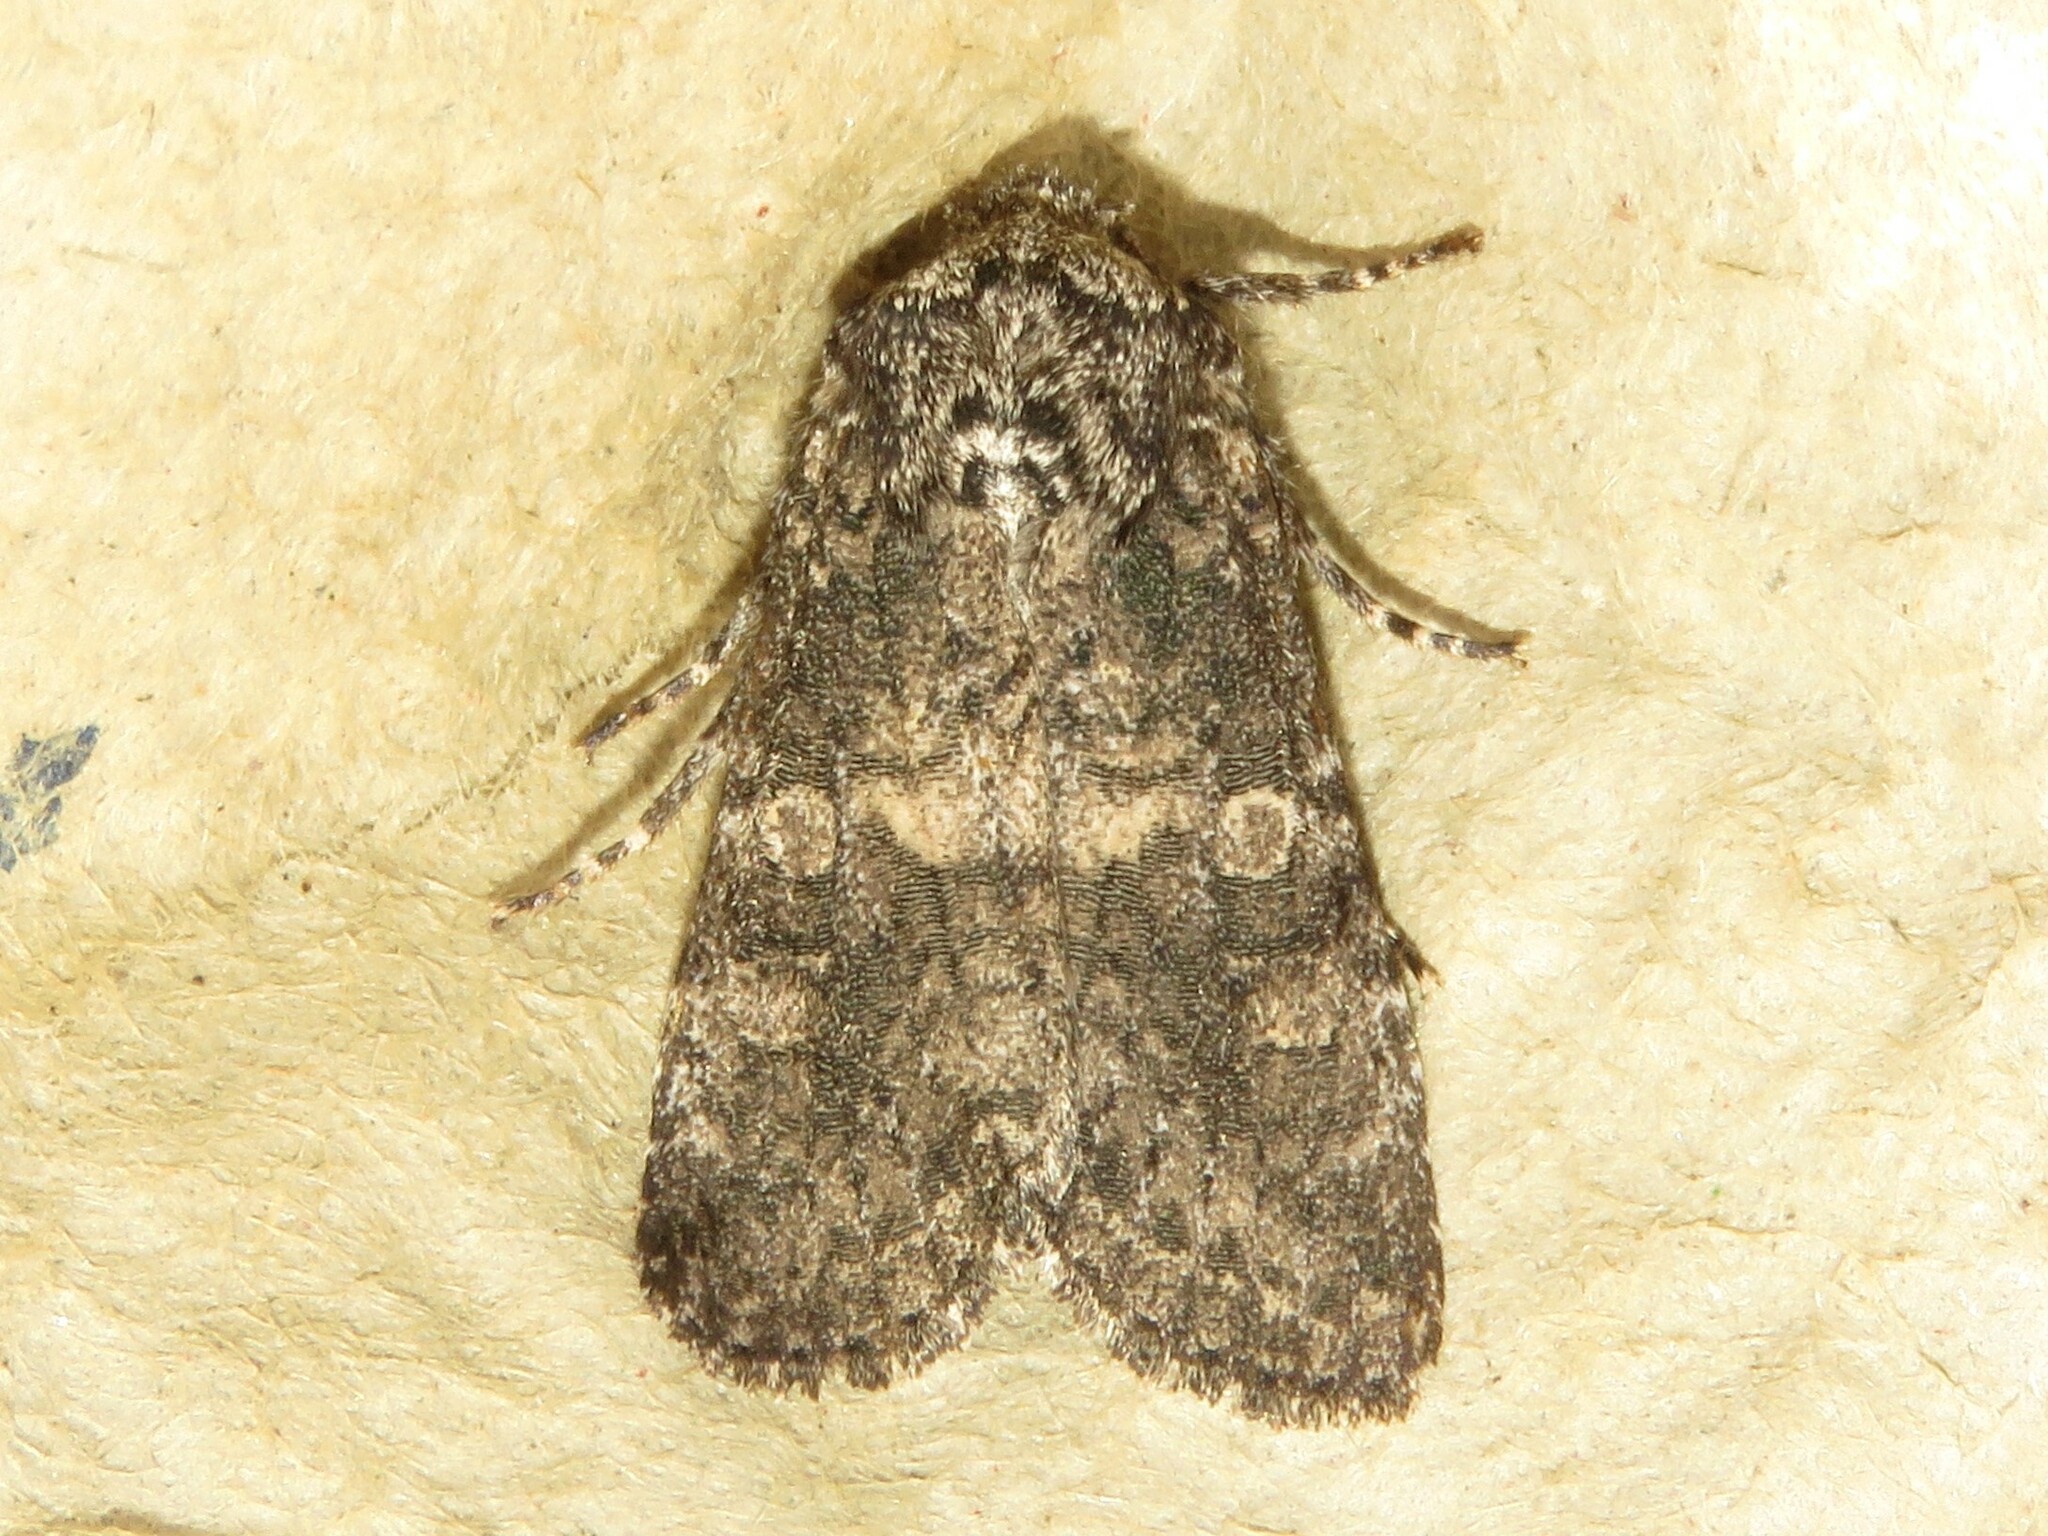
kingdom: Animalia
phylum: Arthropoda
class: Insecta
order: Lepidoptera
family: Noctuidae
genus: Egira
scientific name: Egira dolosa
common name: Lined black aspen cat.
